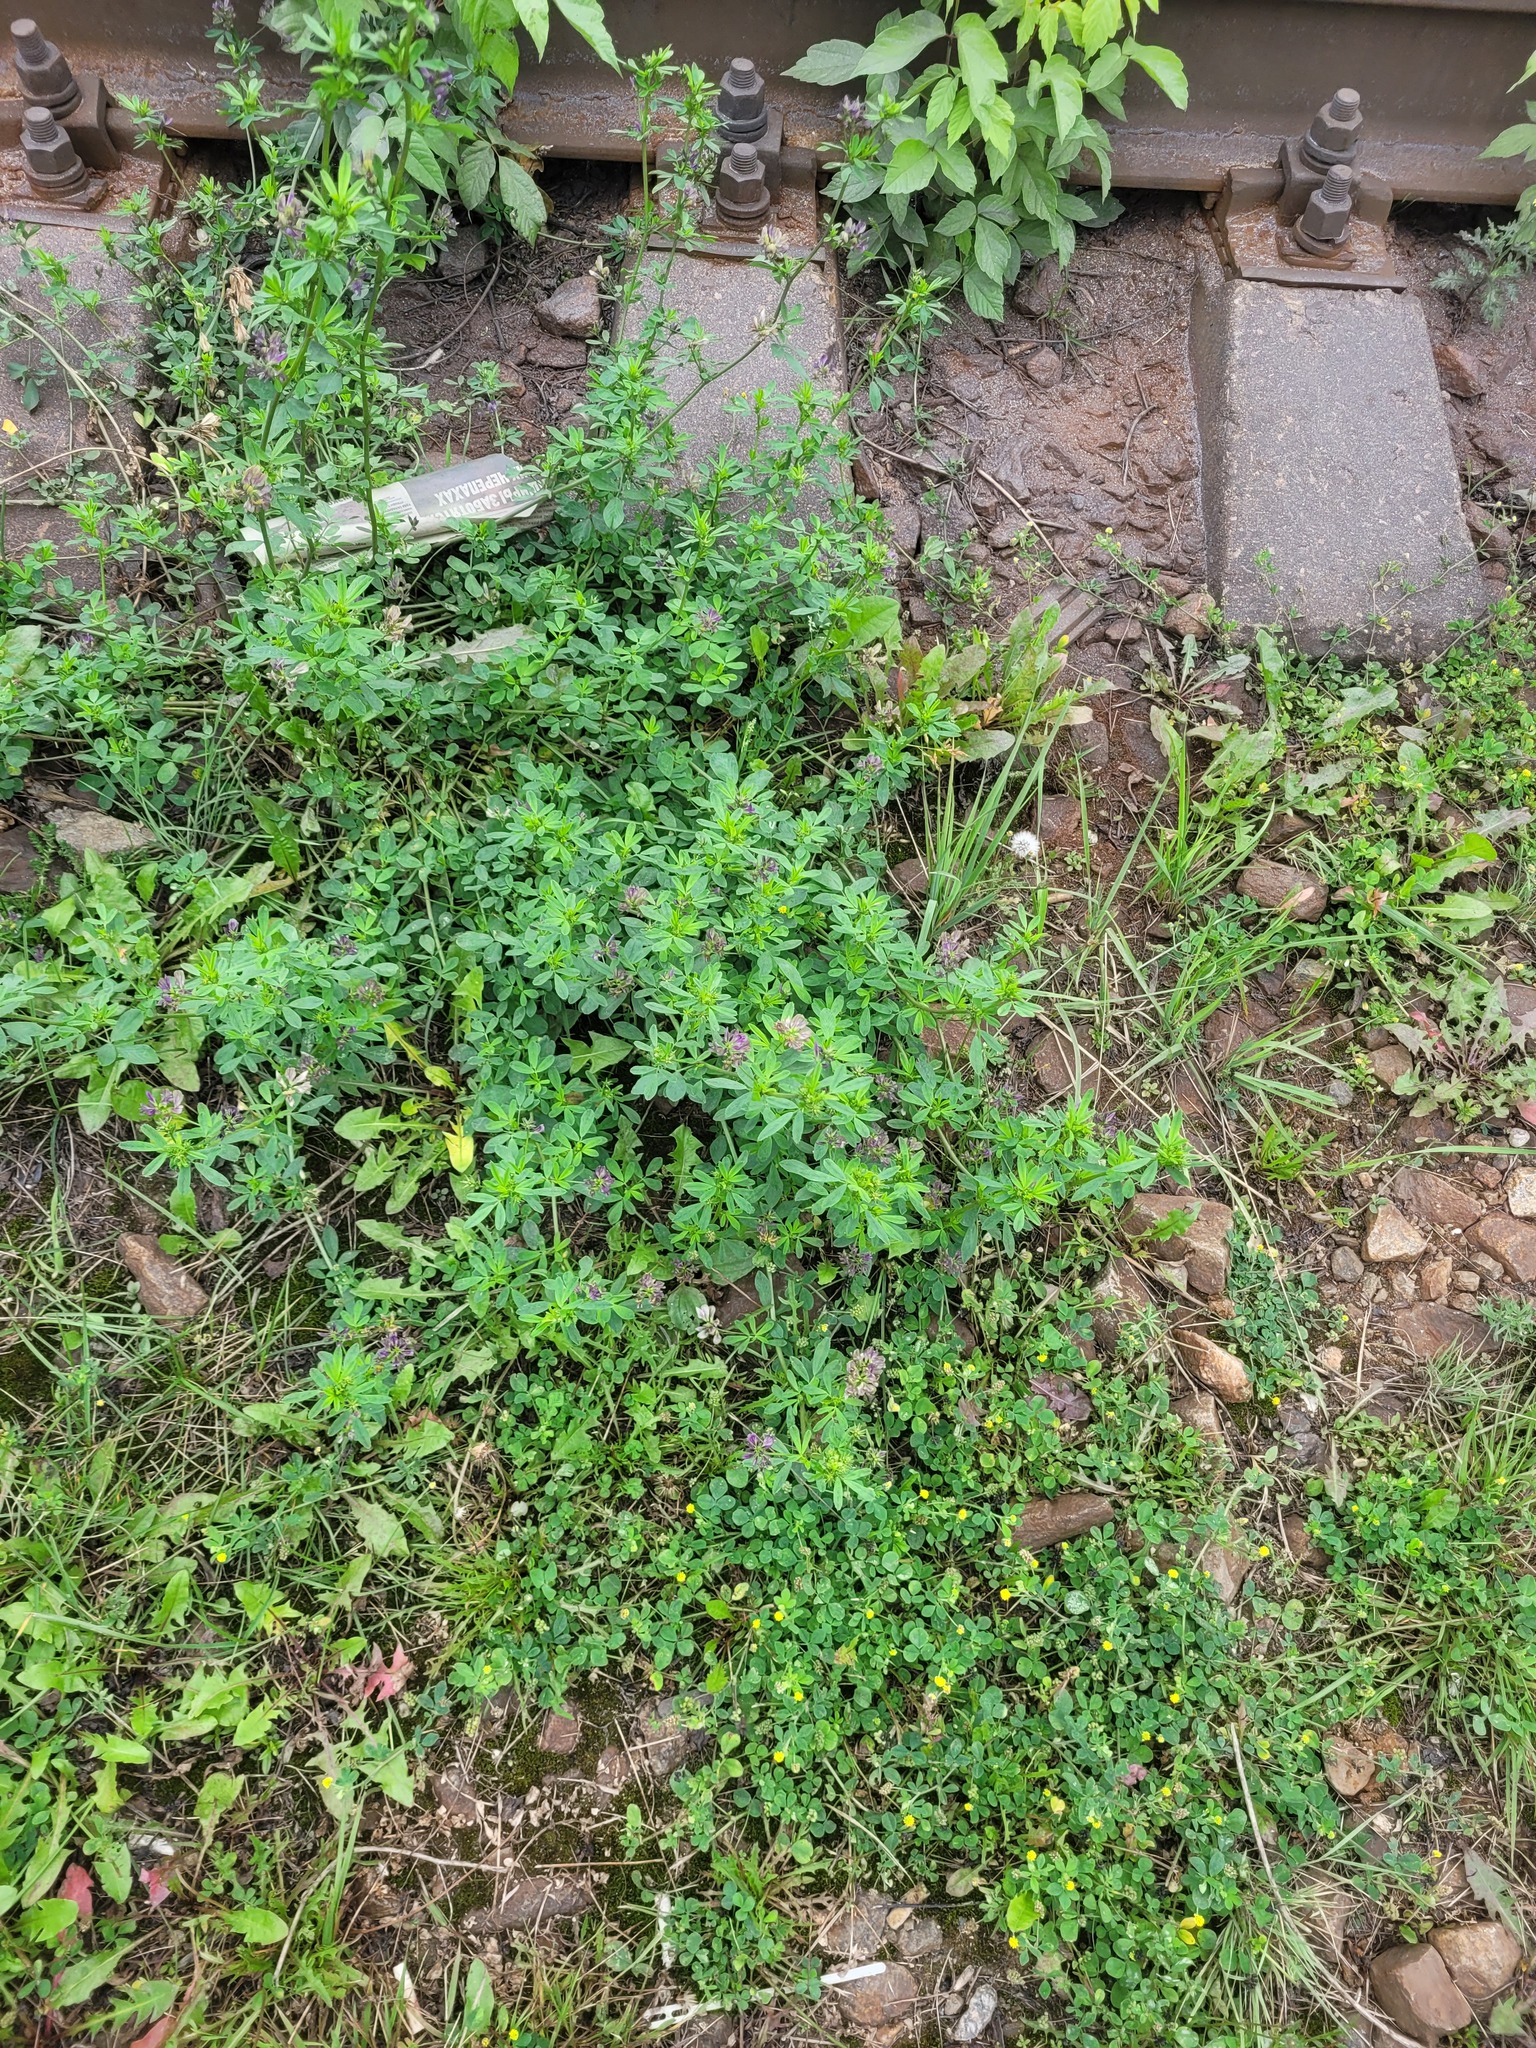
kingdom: Plantae
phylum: Tracheophyta
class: Magnoliopsida
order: Fabales
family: Fabaceae
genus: Medicago
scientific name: Medicago varia
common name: Sand lucerne
